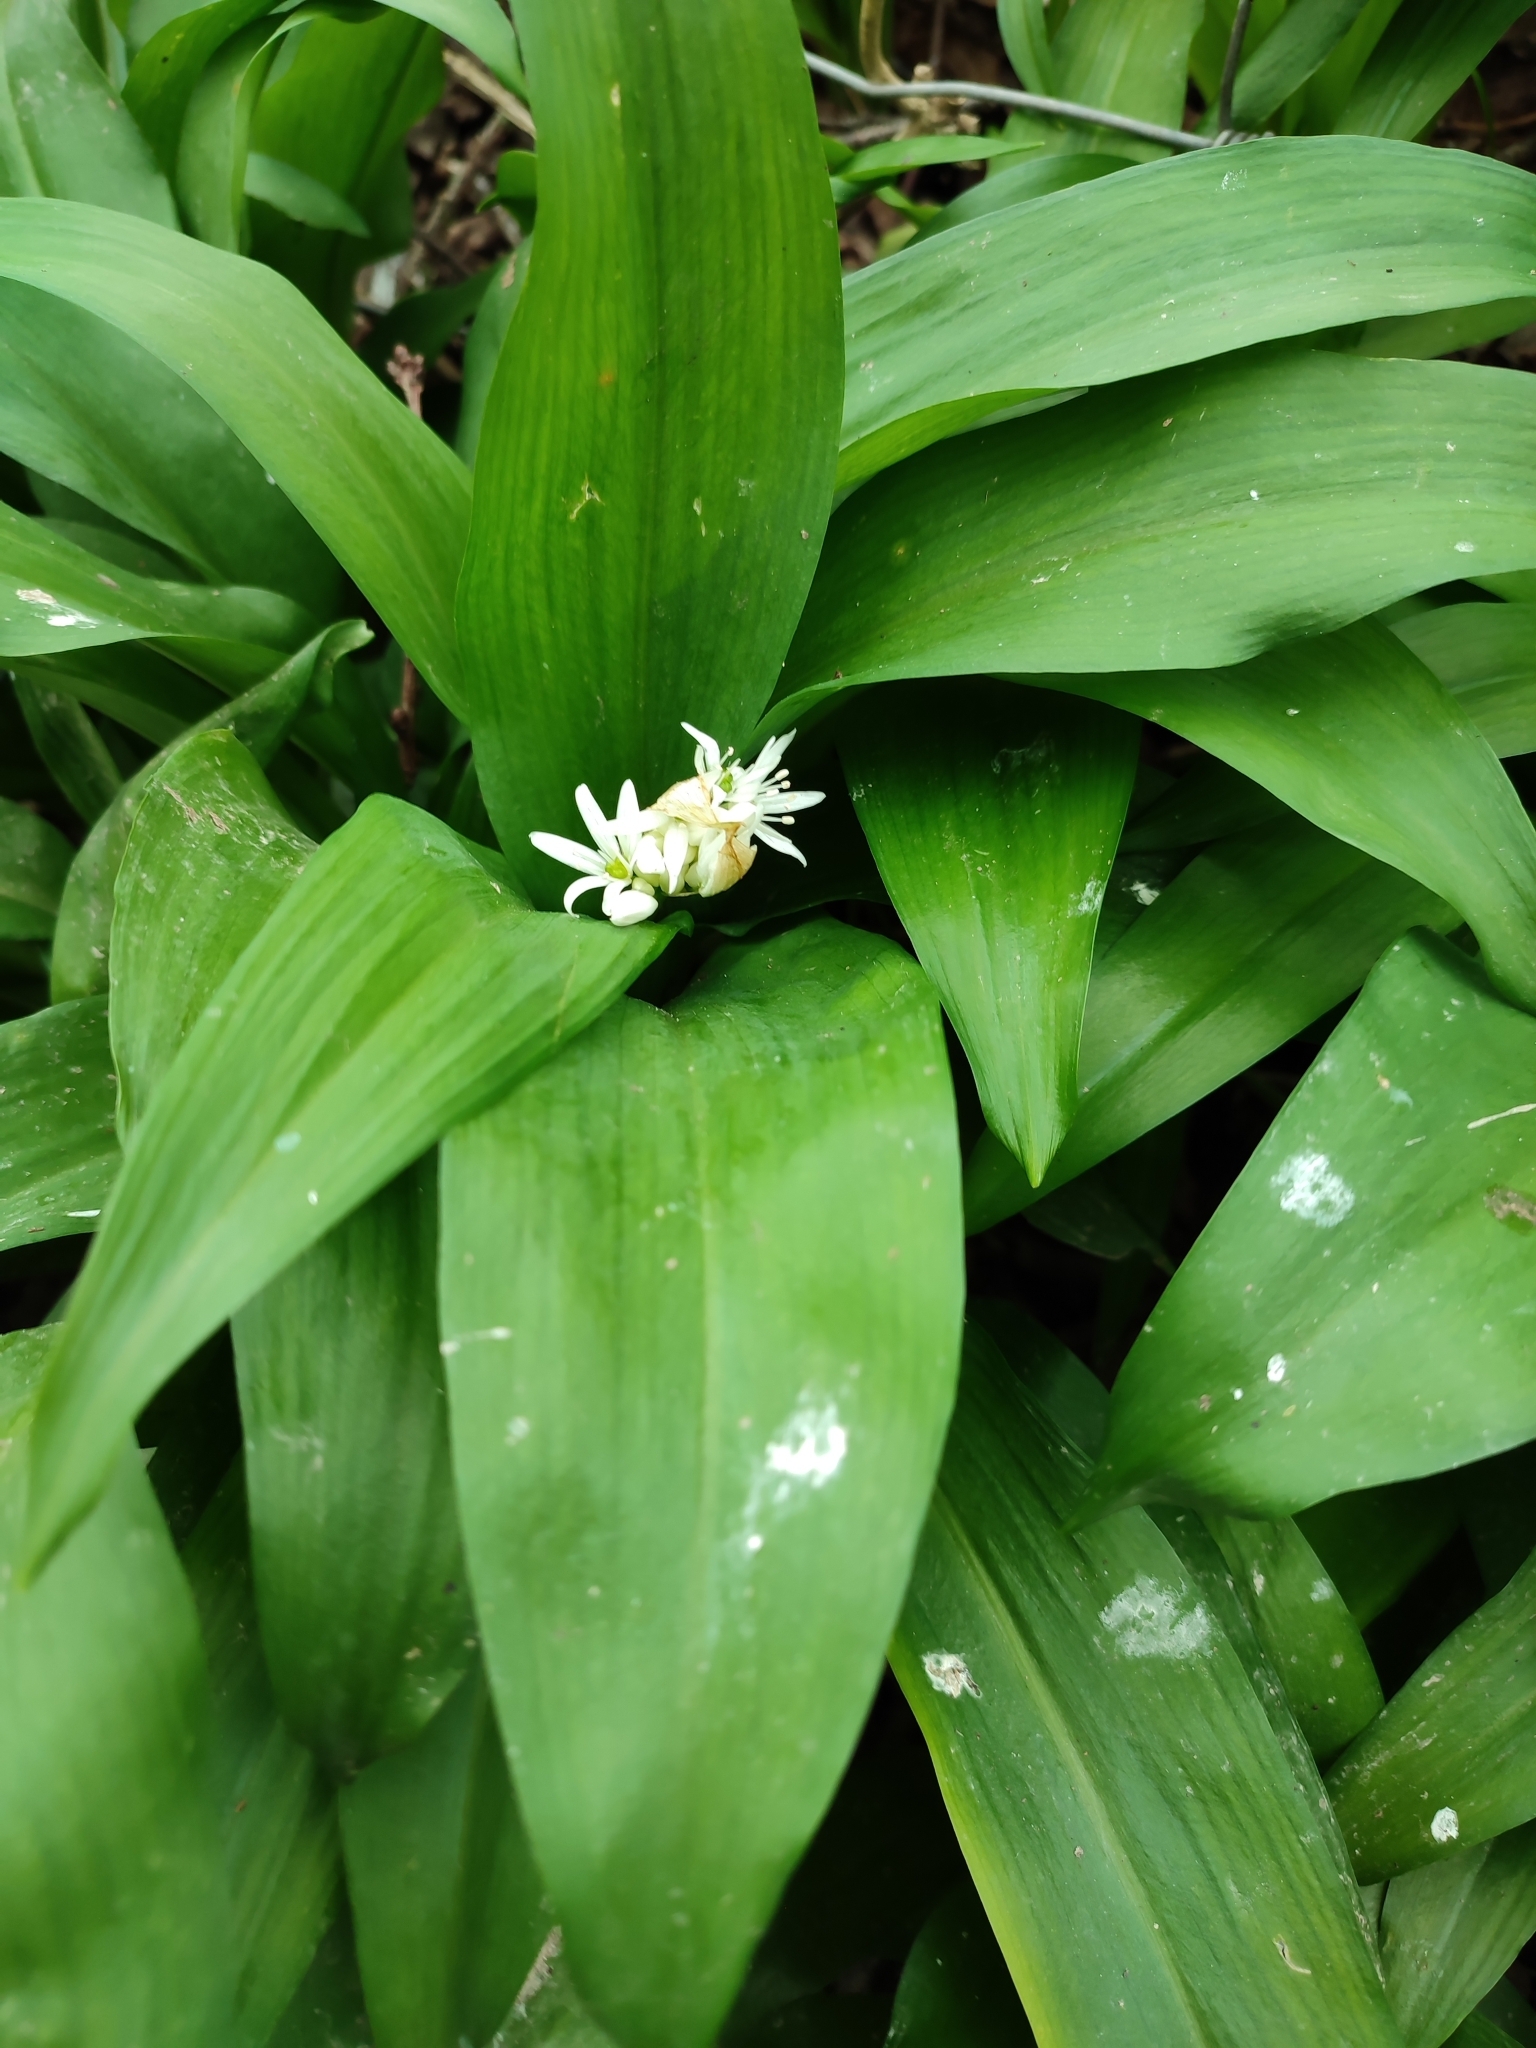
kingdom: Plantae
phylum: Tracheophyta
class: Liliopsida
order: Asparagales
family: Amaryllidaceae
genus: Allium
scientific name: Allium ursinum
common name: Ramsons
